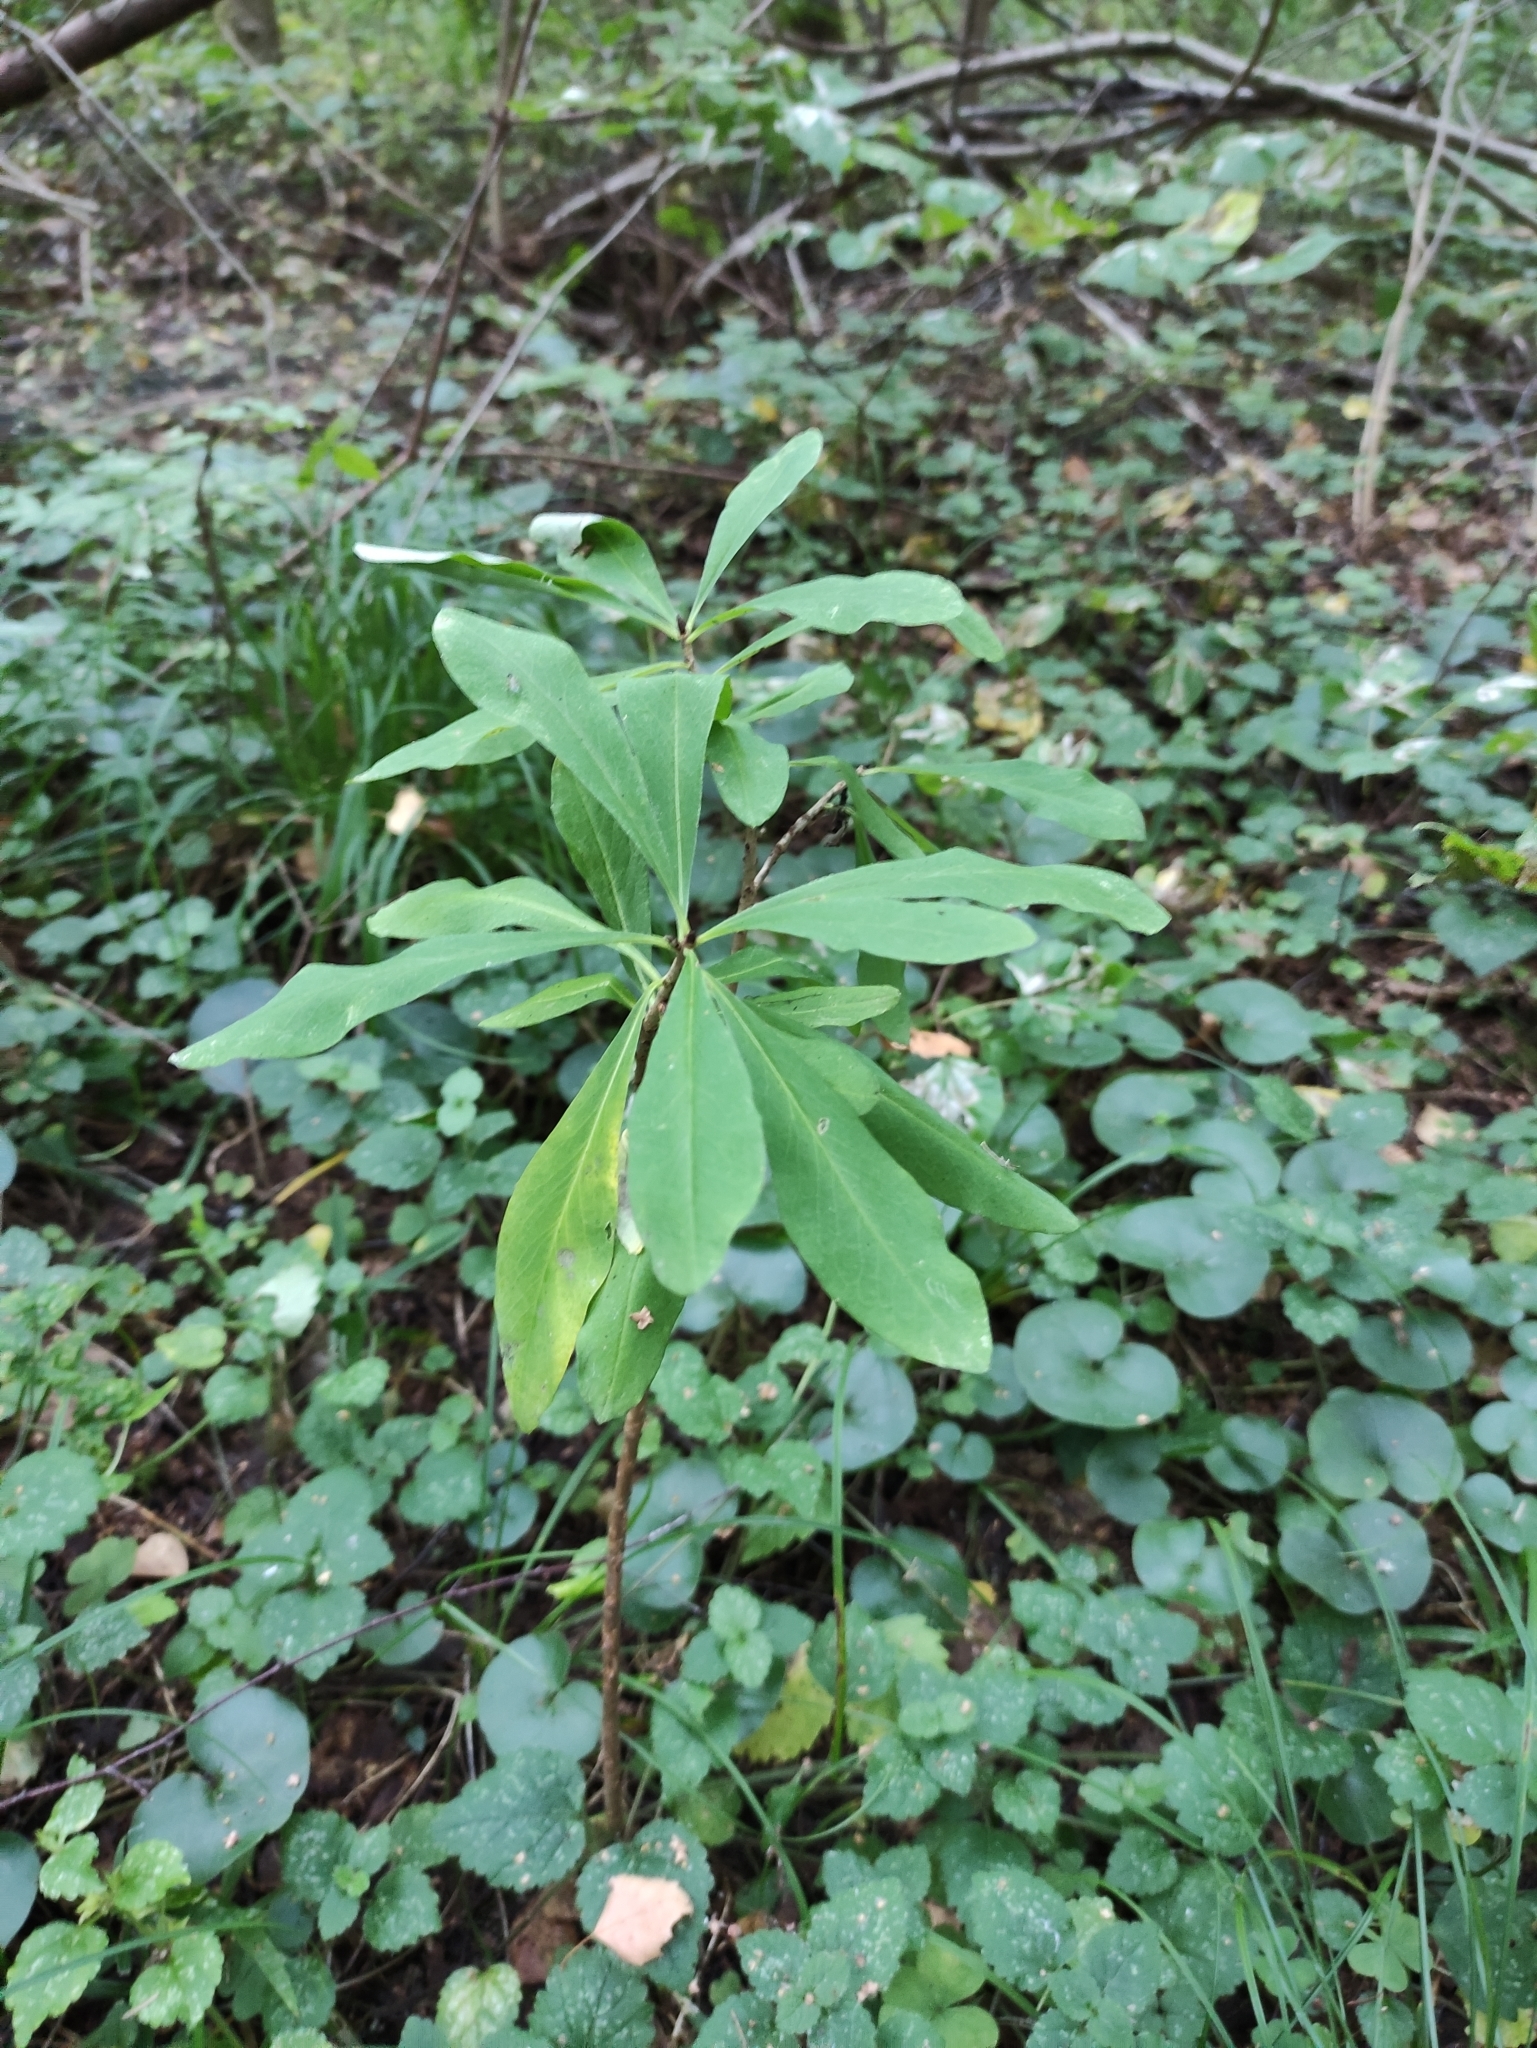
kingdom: Plantae
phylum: Tracheophyta
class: Magnoliopsida
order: Malvales
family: Thymelaeaceae
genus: Daphne
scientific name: Daphne mezereum
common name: Mezereon
